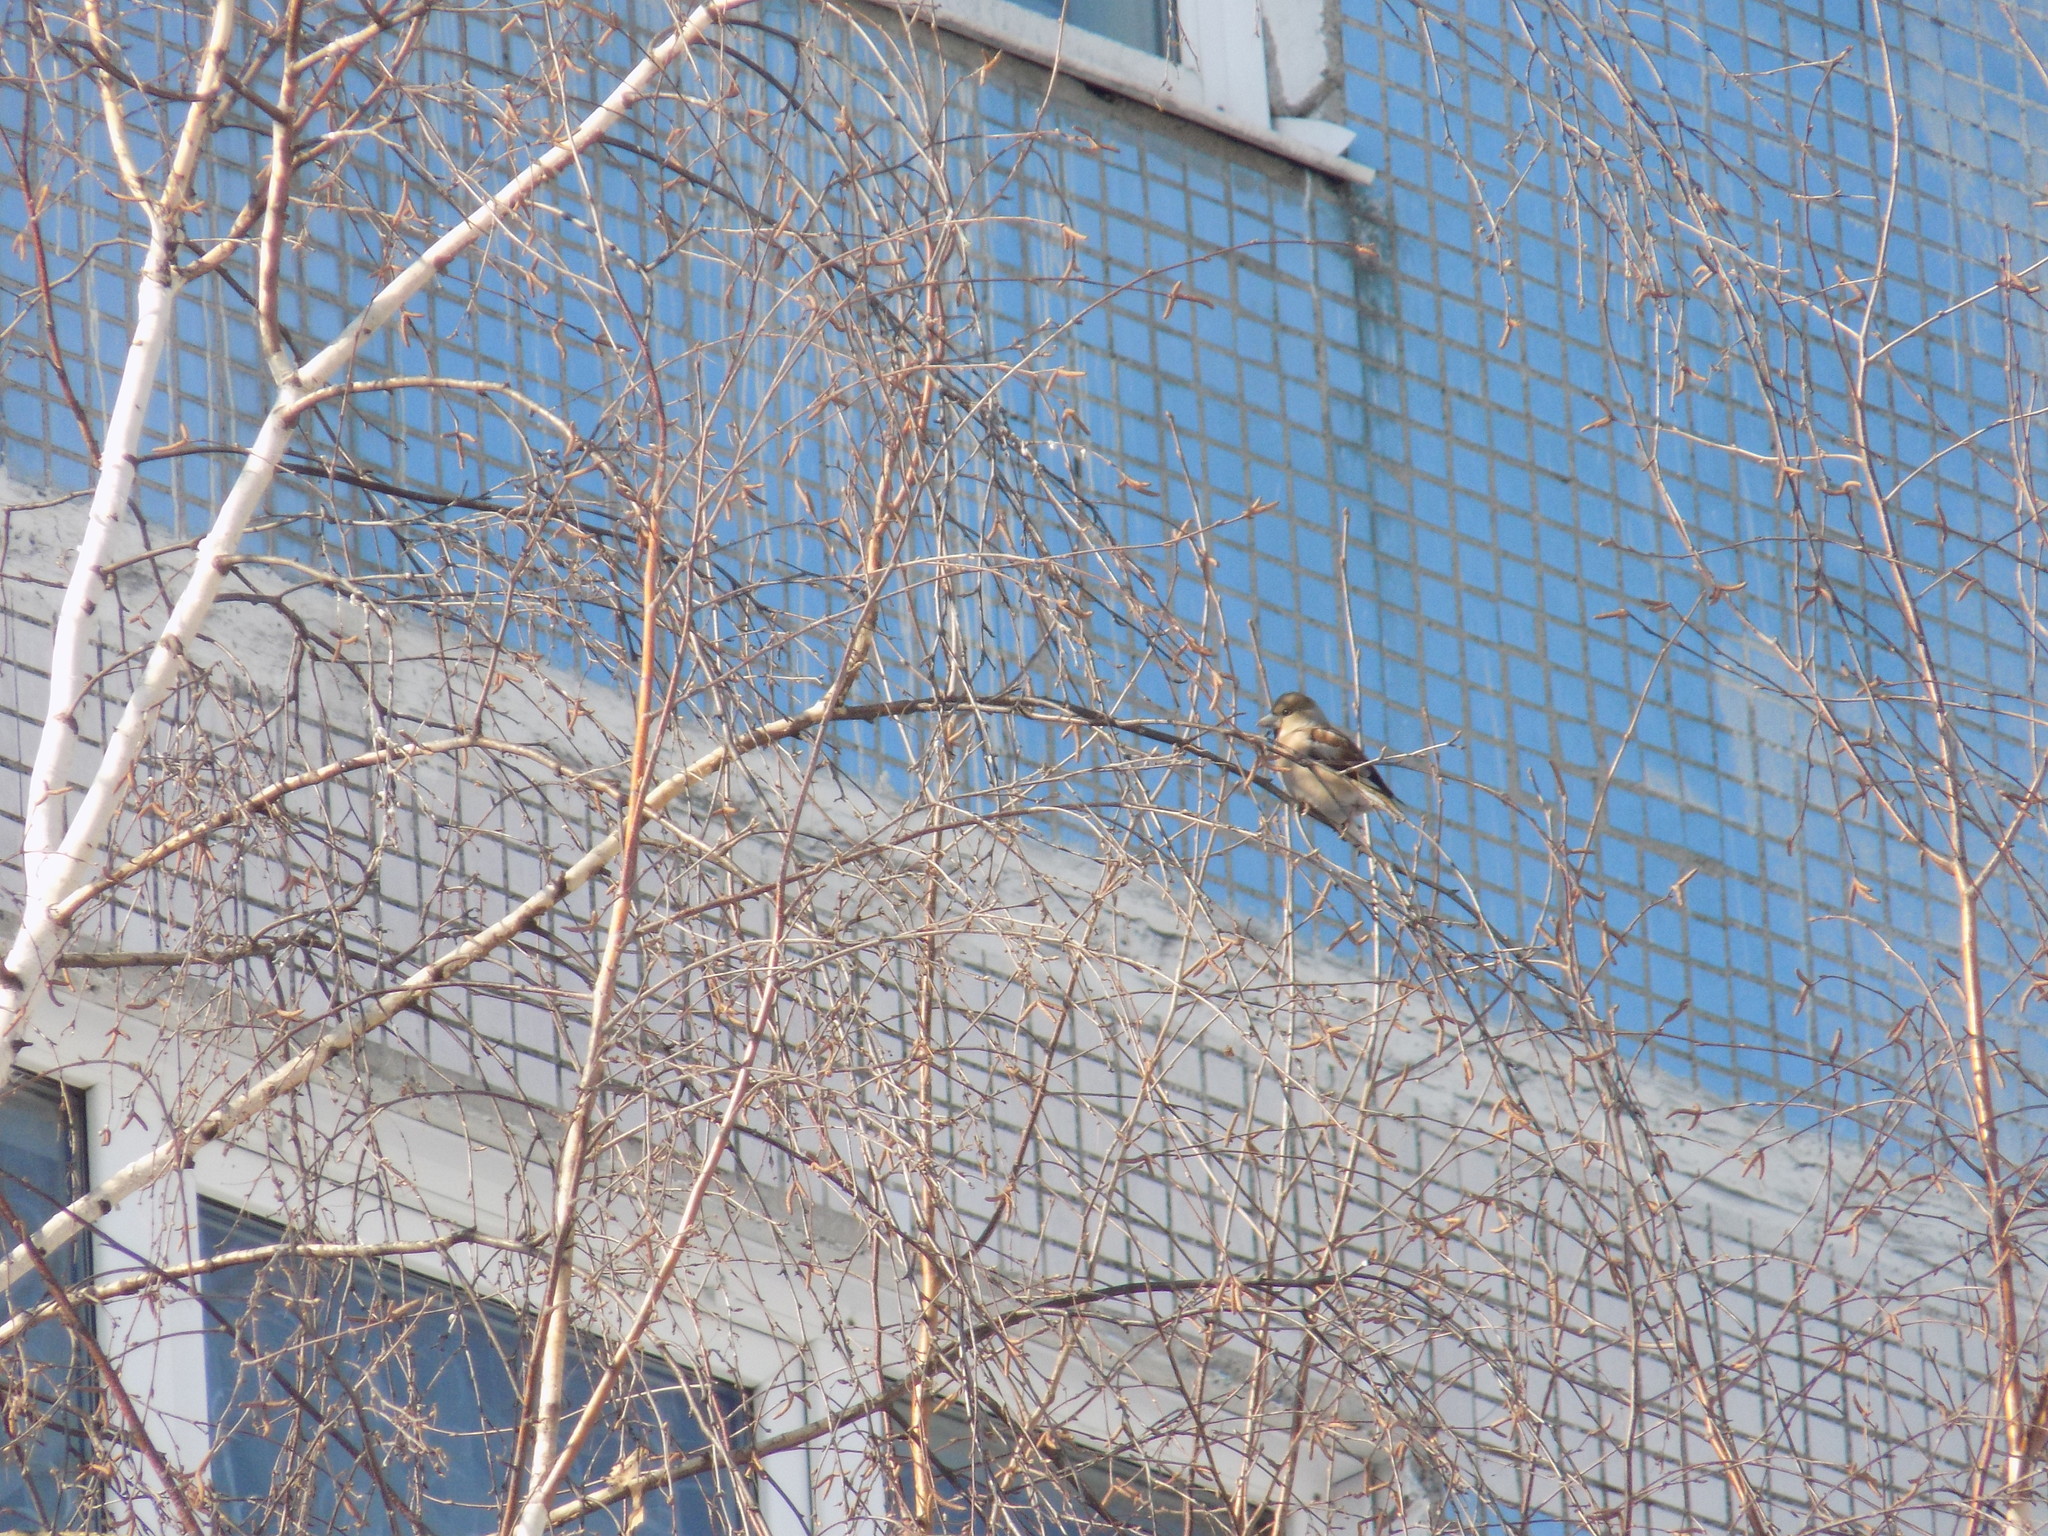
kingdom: Animalia
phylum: Chordata
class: Aves
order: Passeriformes
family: Fringillidae
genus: Coccothraustes
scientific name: Coccothraustes coccothraustes
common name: Hawfinch
